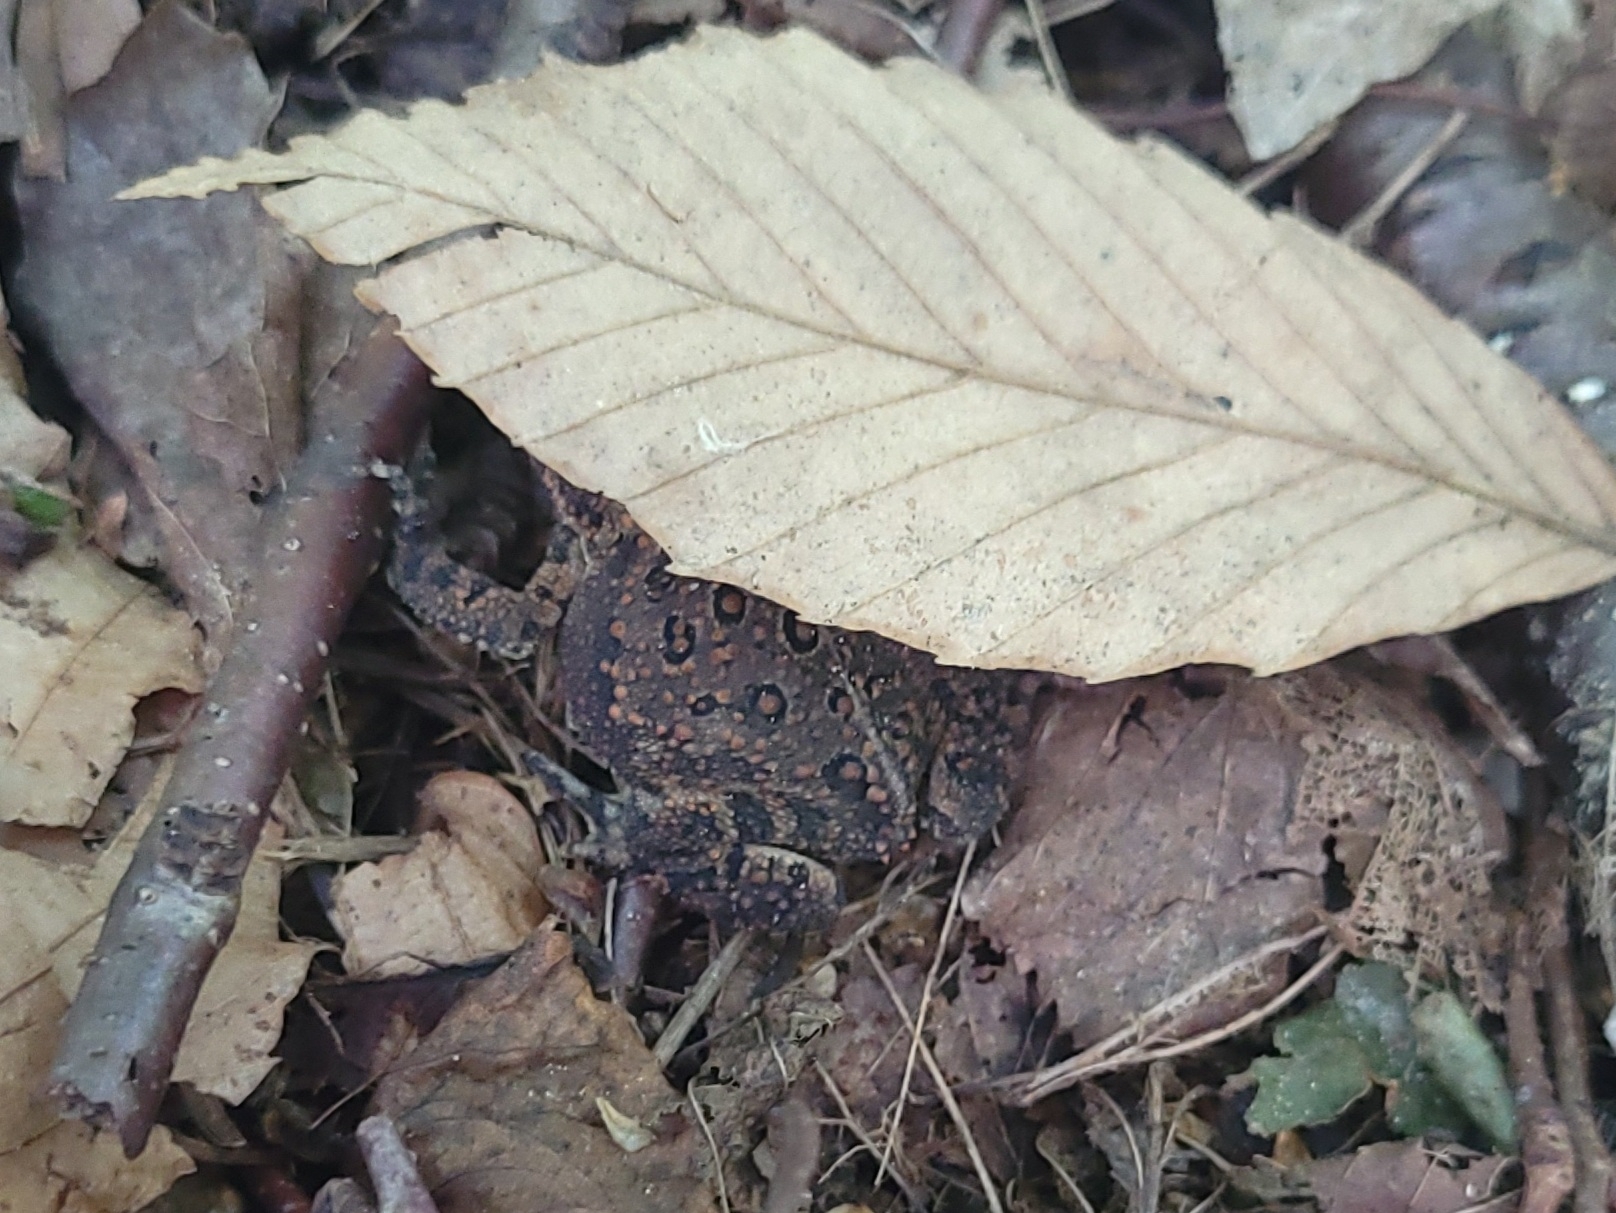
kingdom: Animalia
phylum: Chordata
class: Amphibia
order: Anura
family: Bufonidae
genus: Anaxyrus
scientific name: Anaxyrus americanus
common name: American toad
